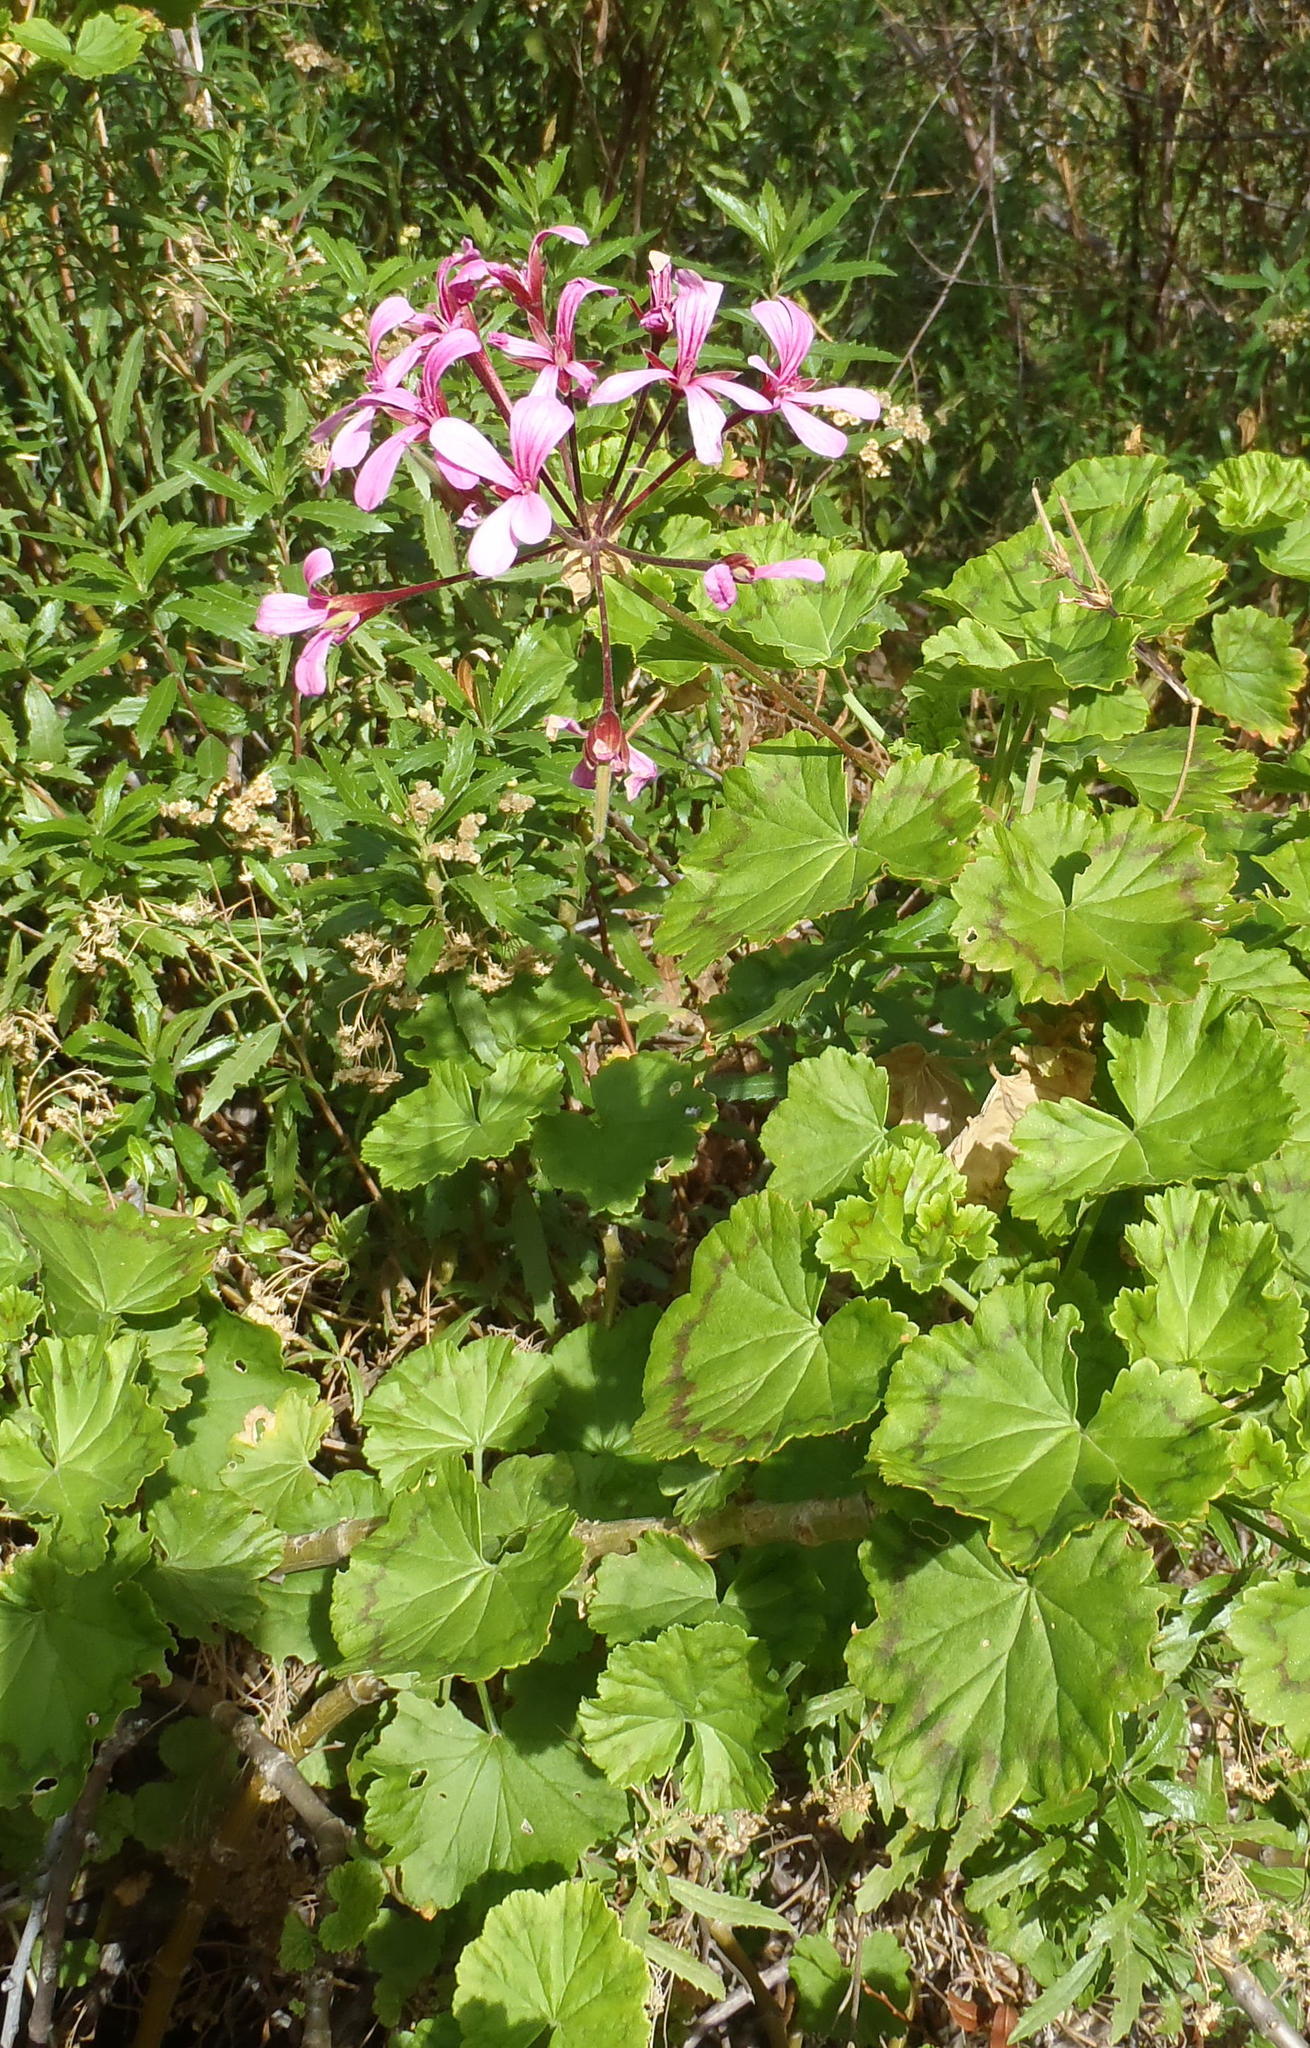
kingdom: Plantae
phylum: Tracheophyta
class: Magnoliopsida
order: Geraniales
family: Geraniaceae
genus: Pelargonium
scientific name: Pelargonium zonale
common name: Horseshoe geranium
